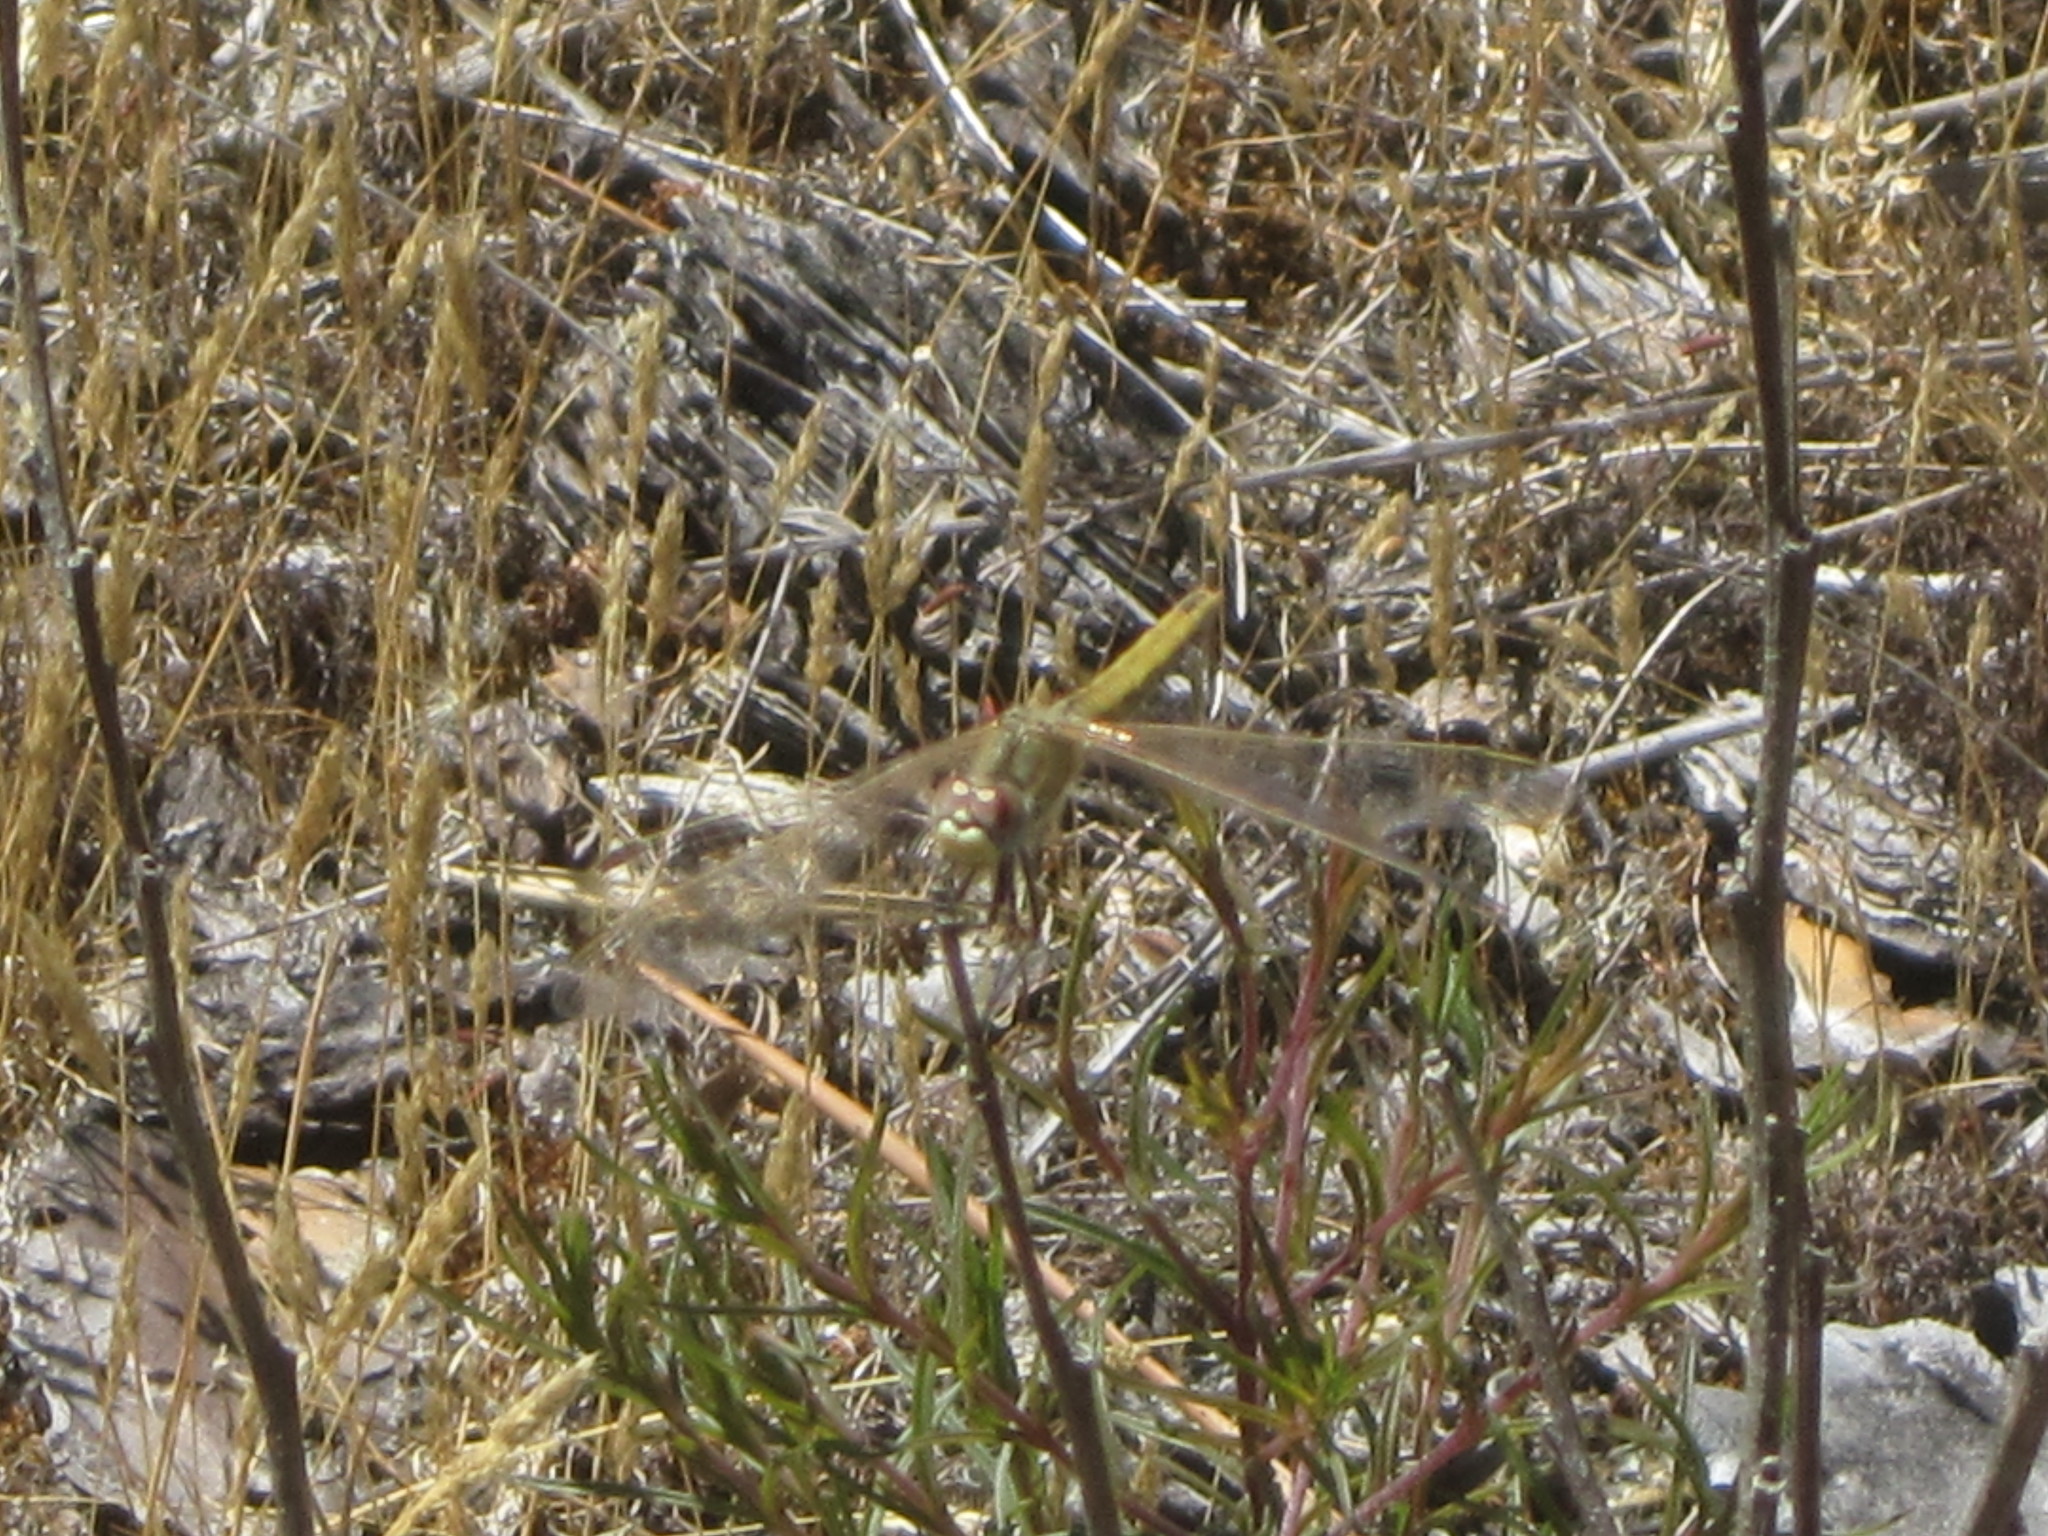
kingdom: Animalia
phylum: Arthropoda
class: Insecta
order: Odonata
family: Libellulidae
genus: Sympetrum
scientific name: Sympetrum fonscolombii
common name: Red-veined darter
